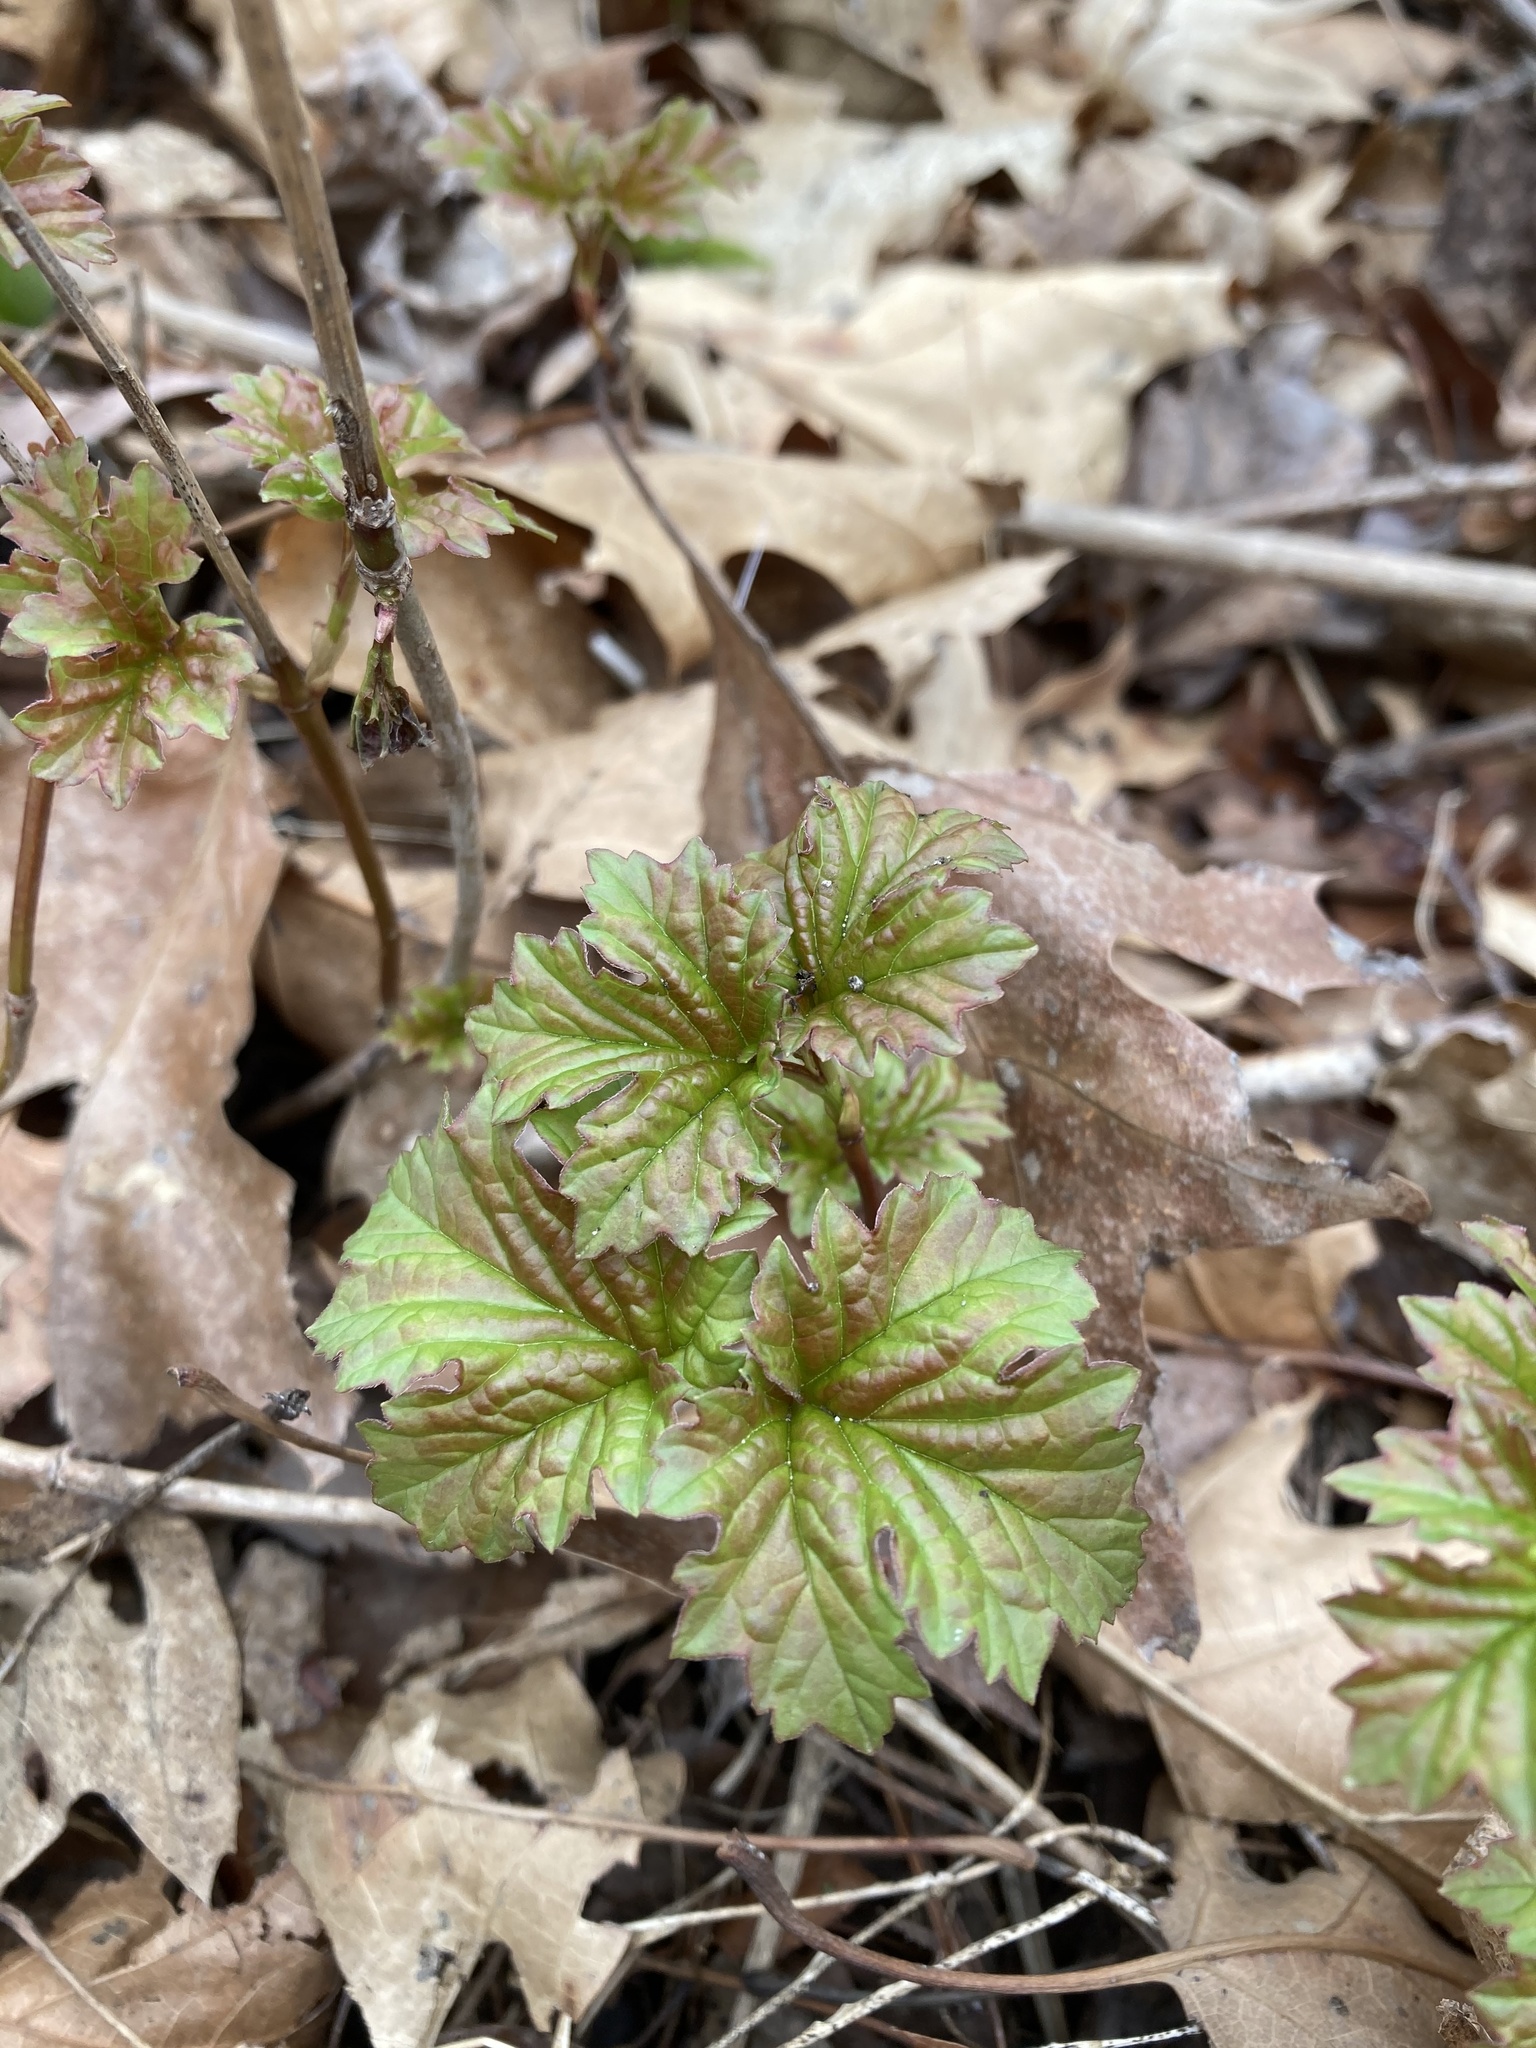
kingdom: Plantae
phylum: Tracheophyta
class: Magnoliopsida
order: Dipsacales
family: Viburnaceae
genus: Viburnum
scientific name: Viburnum opulus
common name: Guelder-rose
